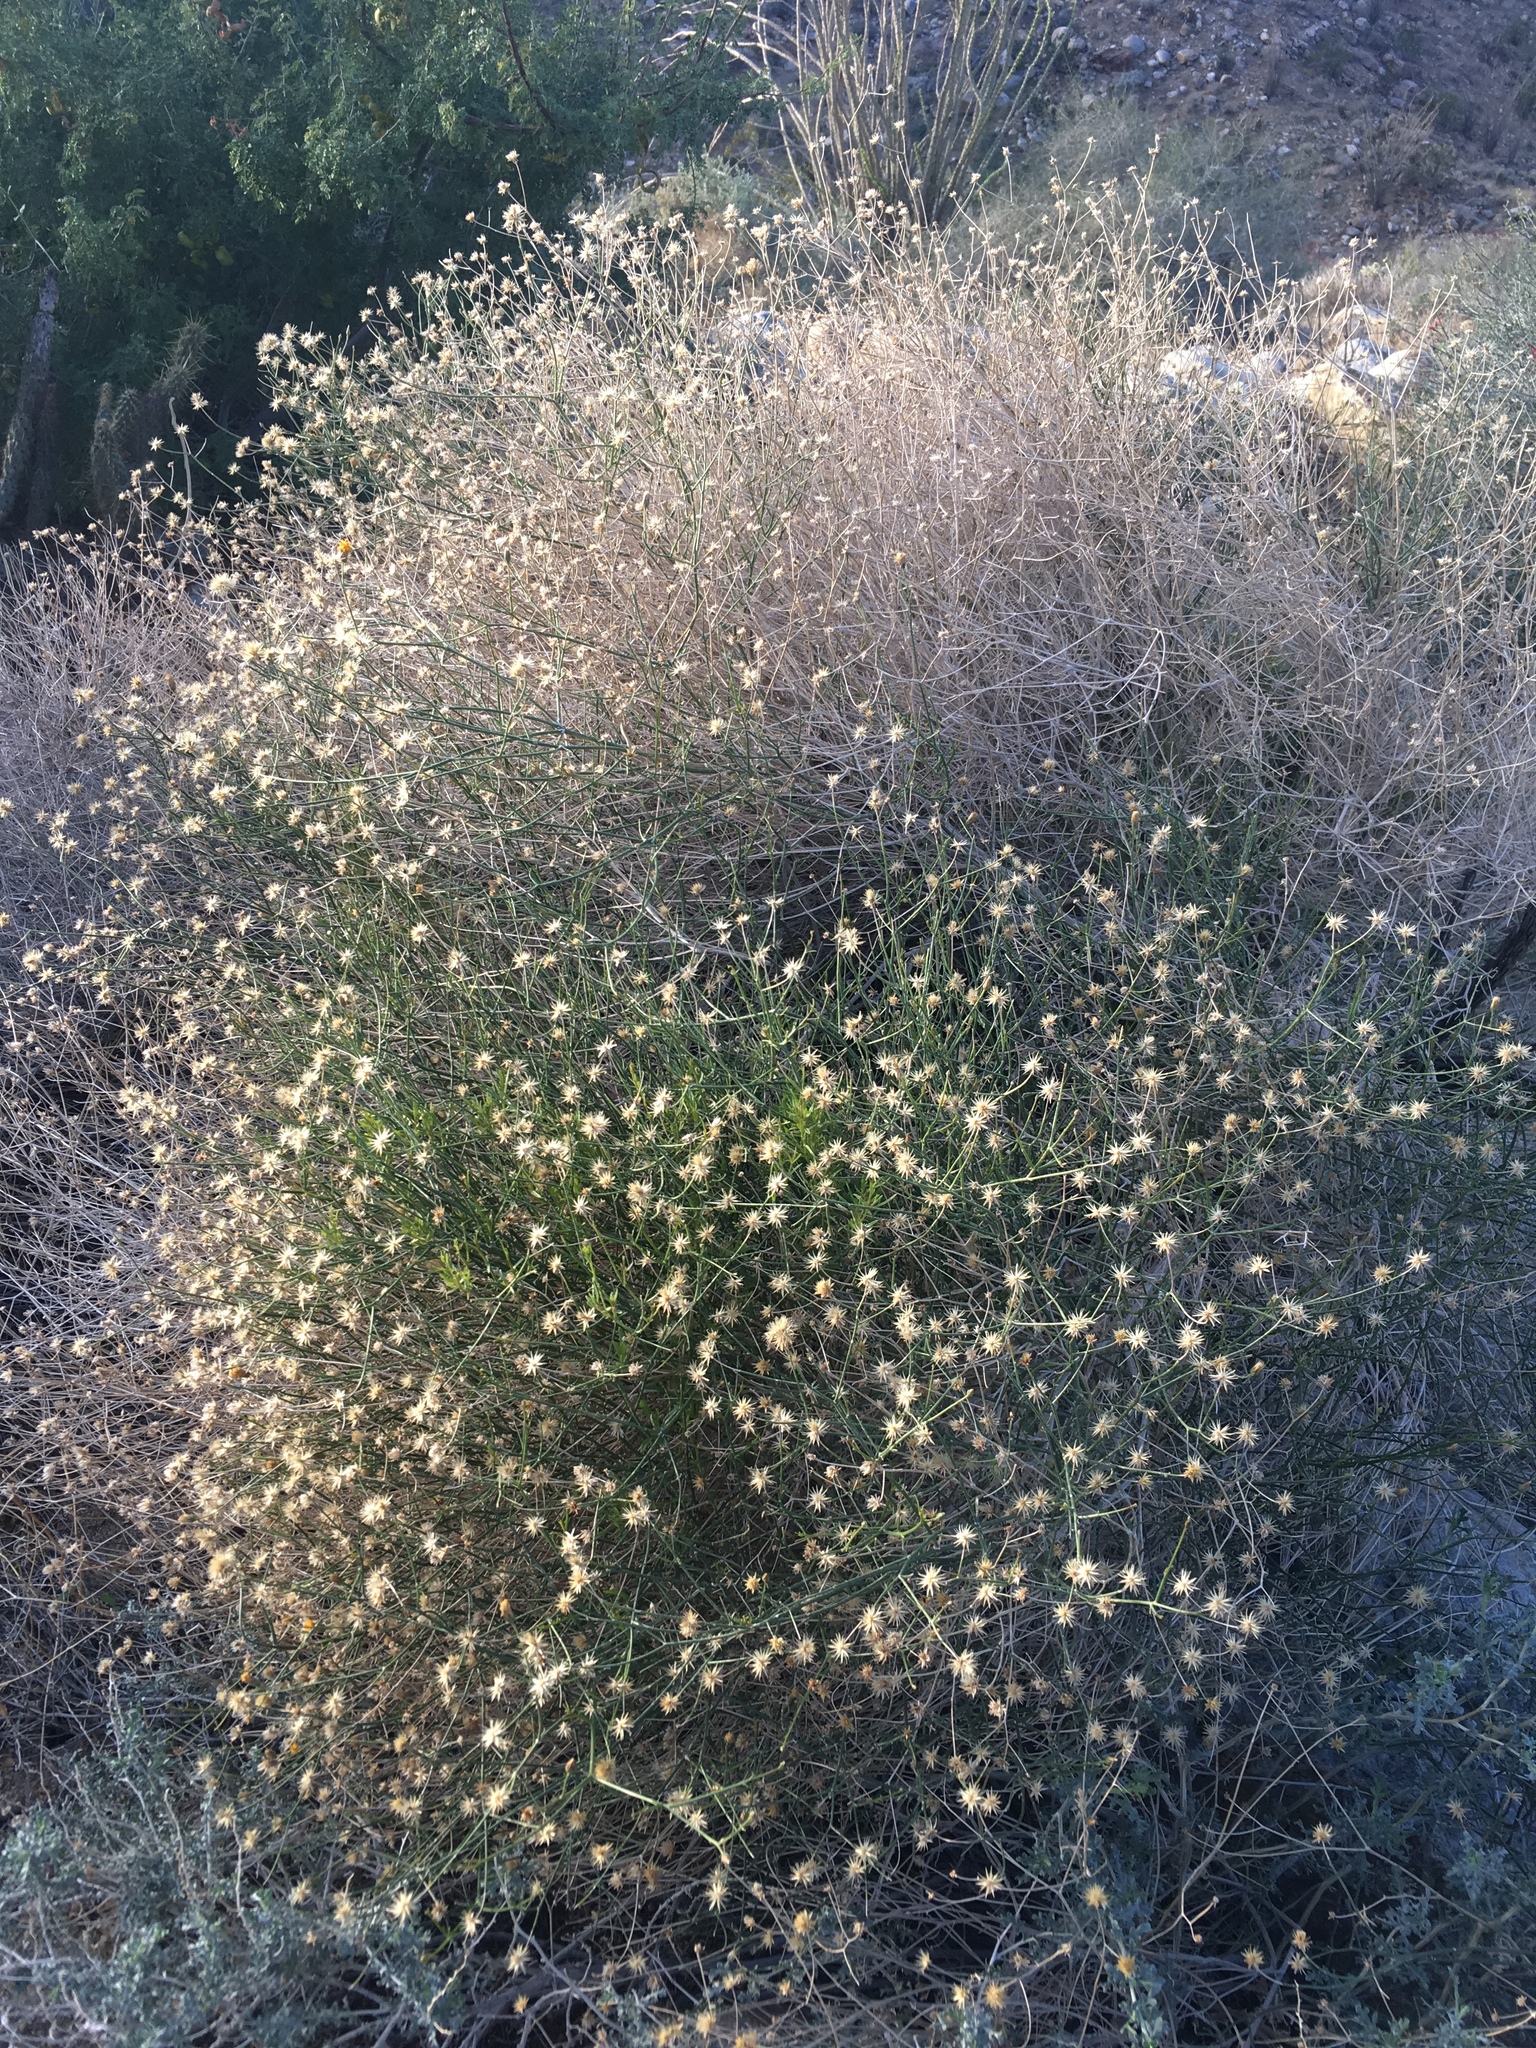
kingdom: Plantae
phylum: Tracheophyta
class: Magnoliopsida
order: Asterales
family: Asteraceae
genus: Bebbia
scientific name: Bebbia juncea
